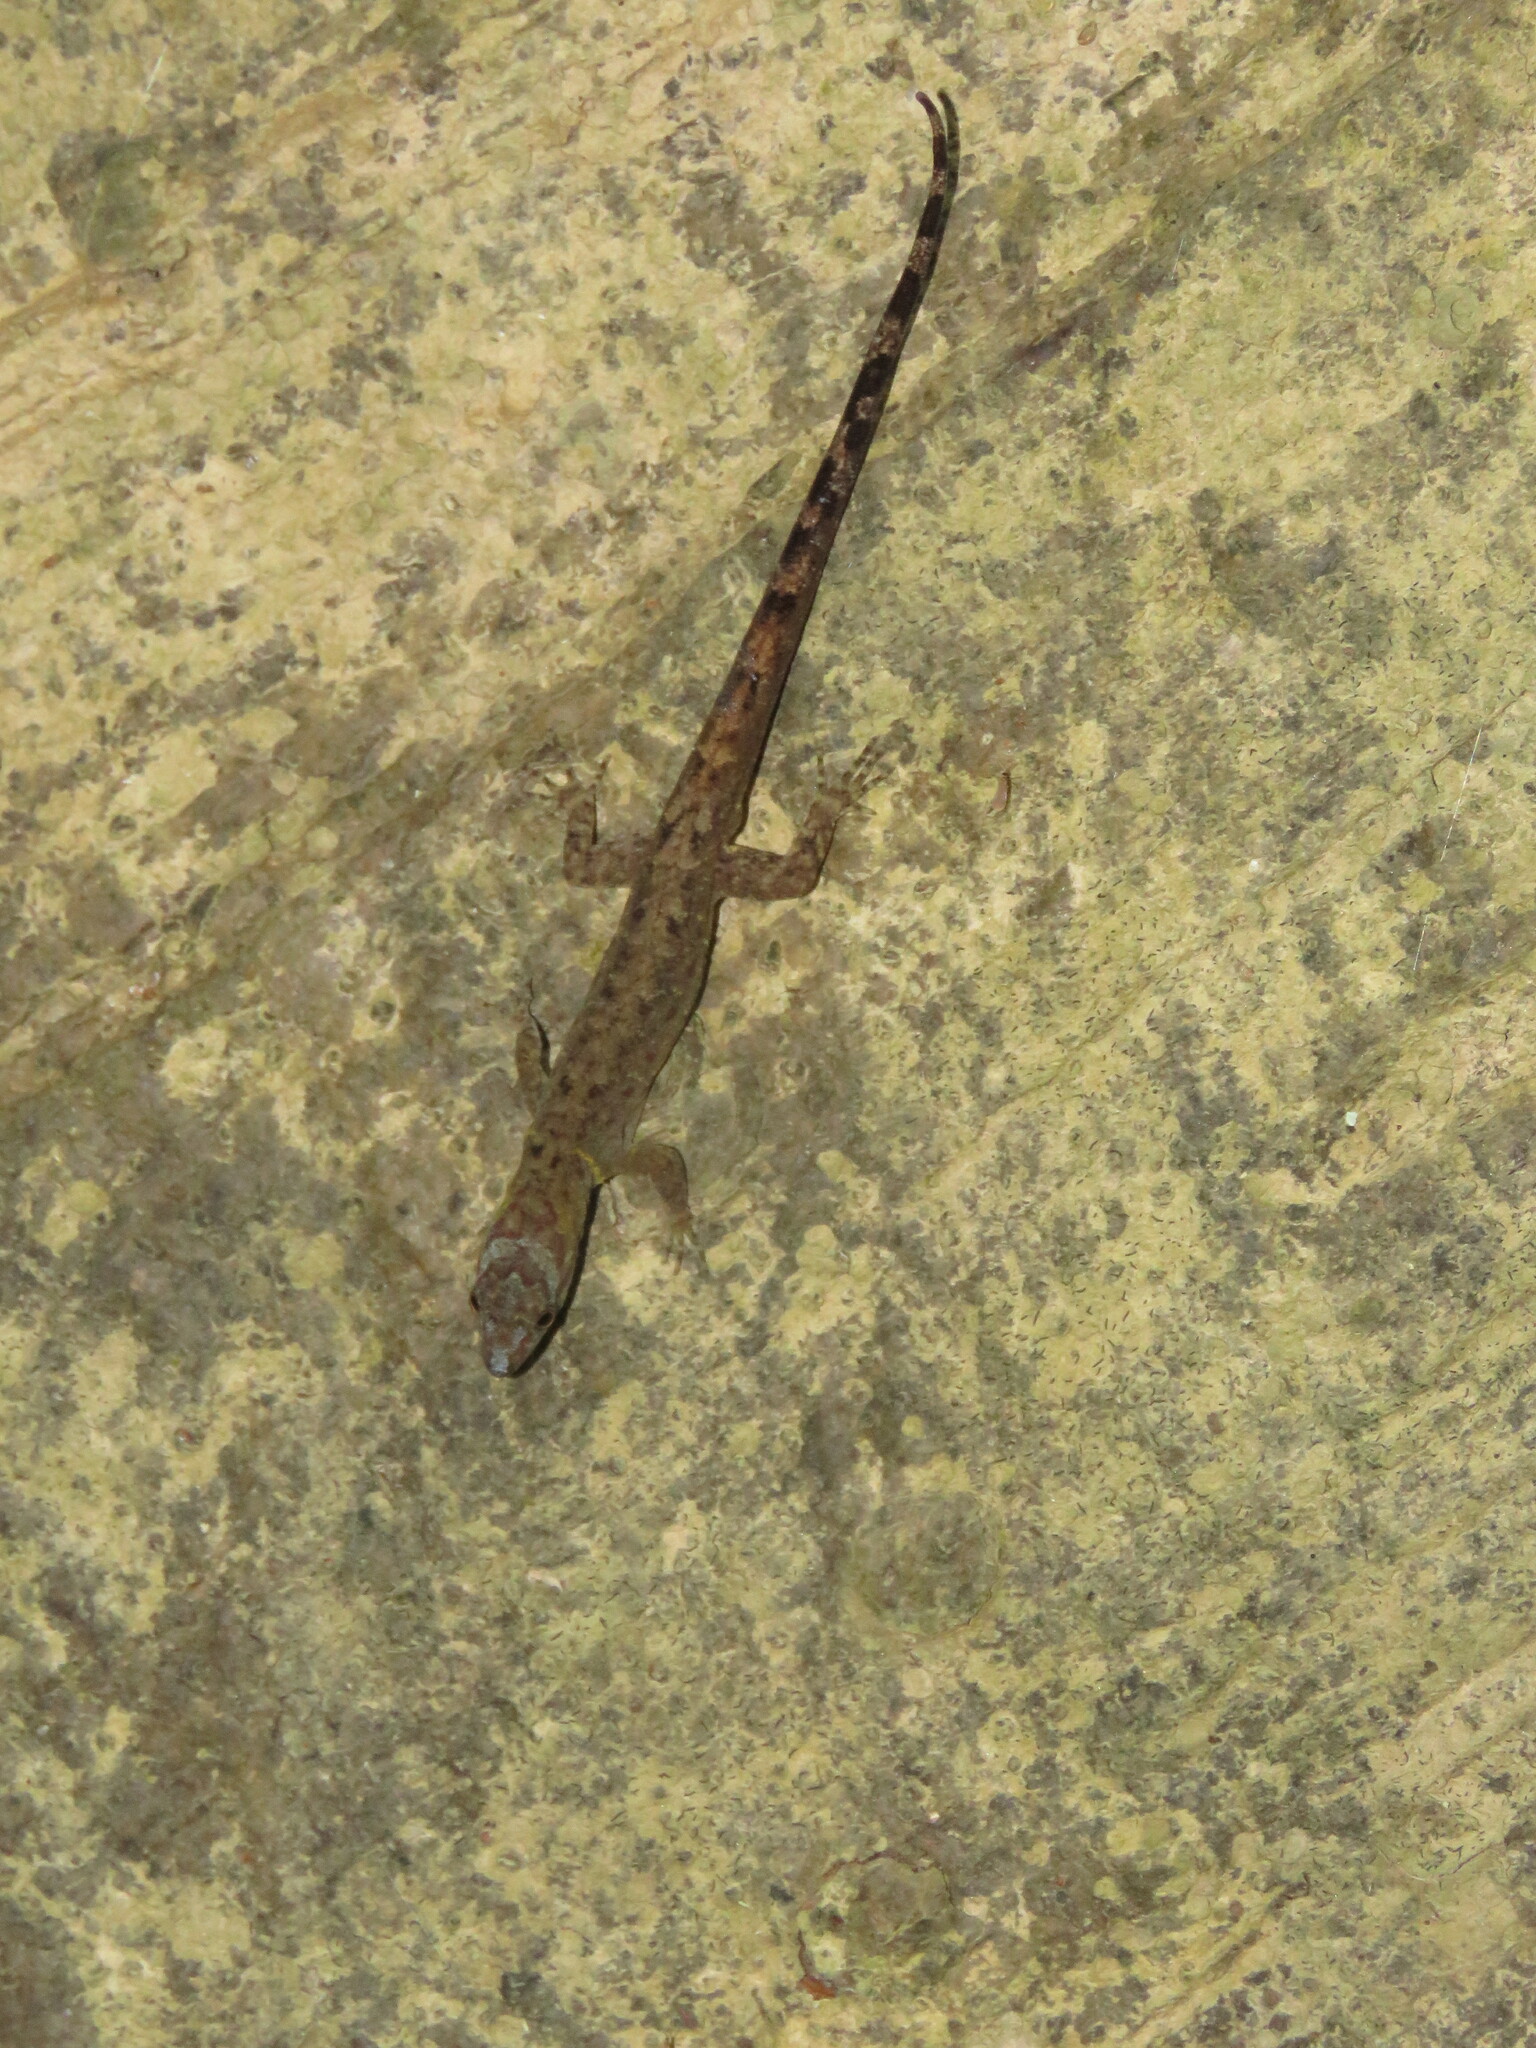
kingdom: Animalia
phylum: Chordata
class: Squamata
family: Sphaerodactylidae
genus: Gonatodes
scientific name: Gonatodes humeralis
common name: South american clawed gecko
